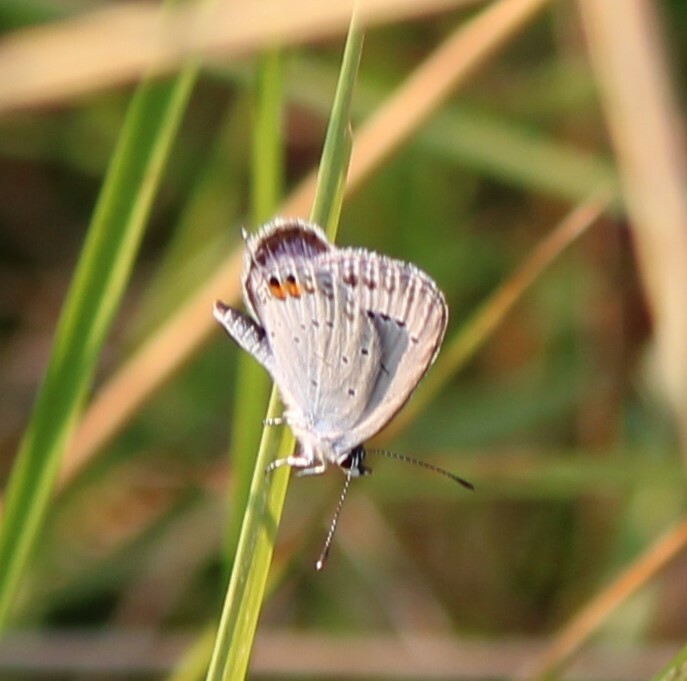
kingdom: Animalia
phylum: Arthropoda
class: Insecta
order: Lepidoptera
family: Lycaenidae
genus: Elkalyce
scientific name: Elkalyce argiades
